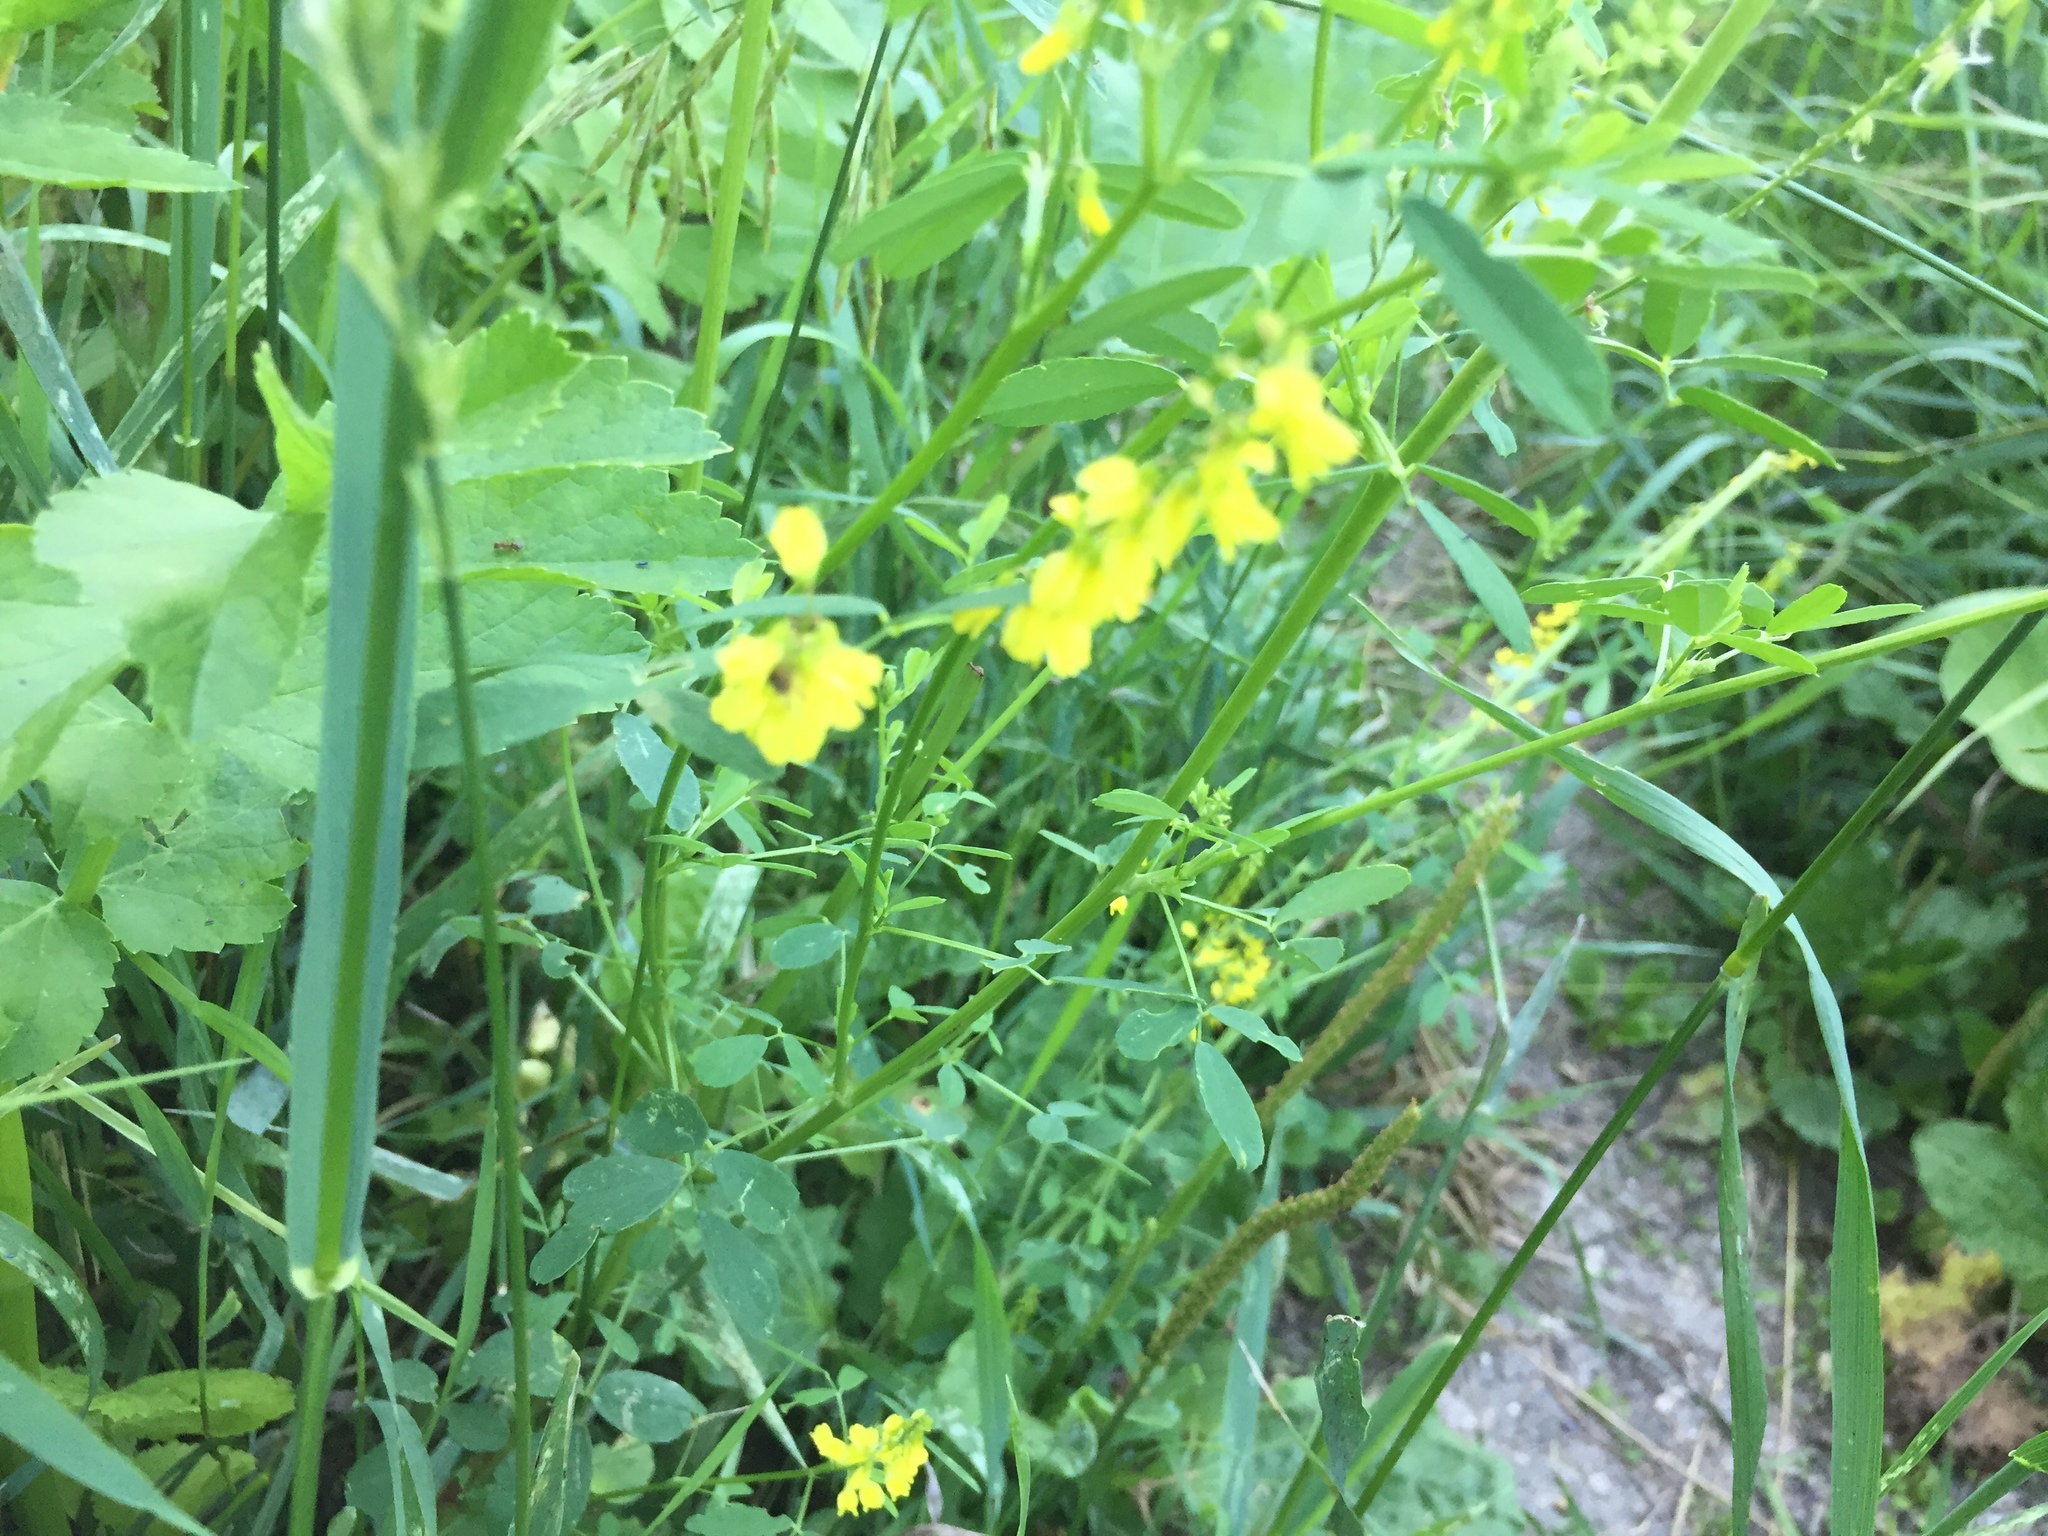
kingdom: Plantae
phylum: Tracheophyta
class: Magnoliopsida
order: Fabales
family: Fabaceae
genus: Melilotus
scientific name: Melilotus officinalis
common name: Sweetclover
